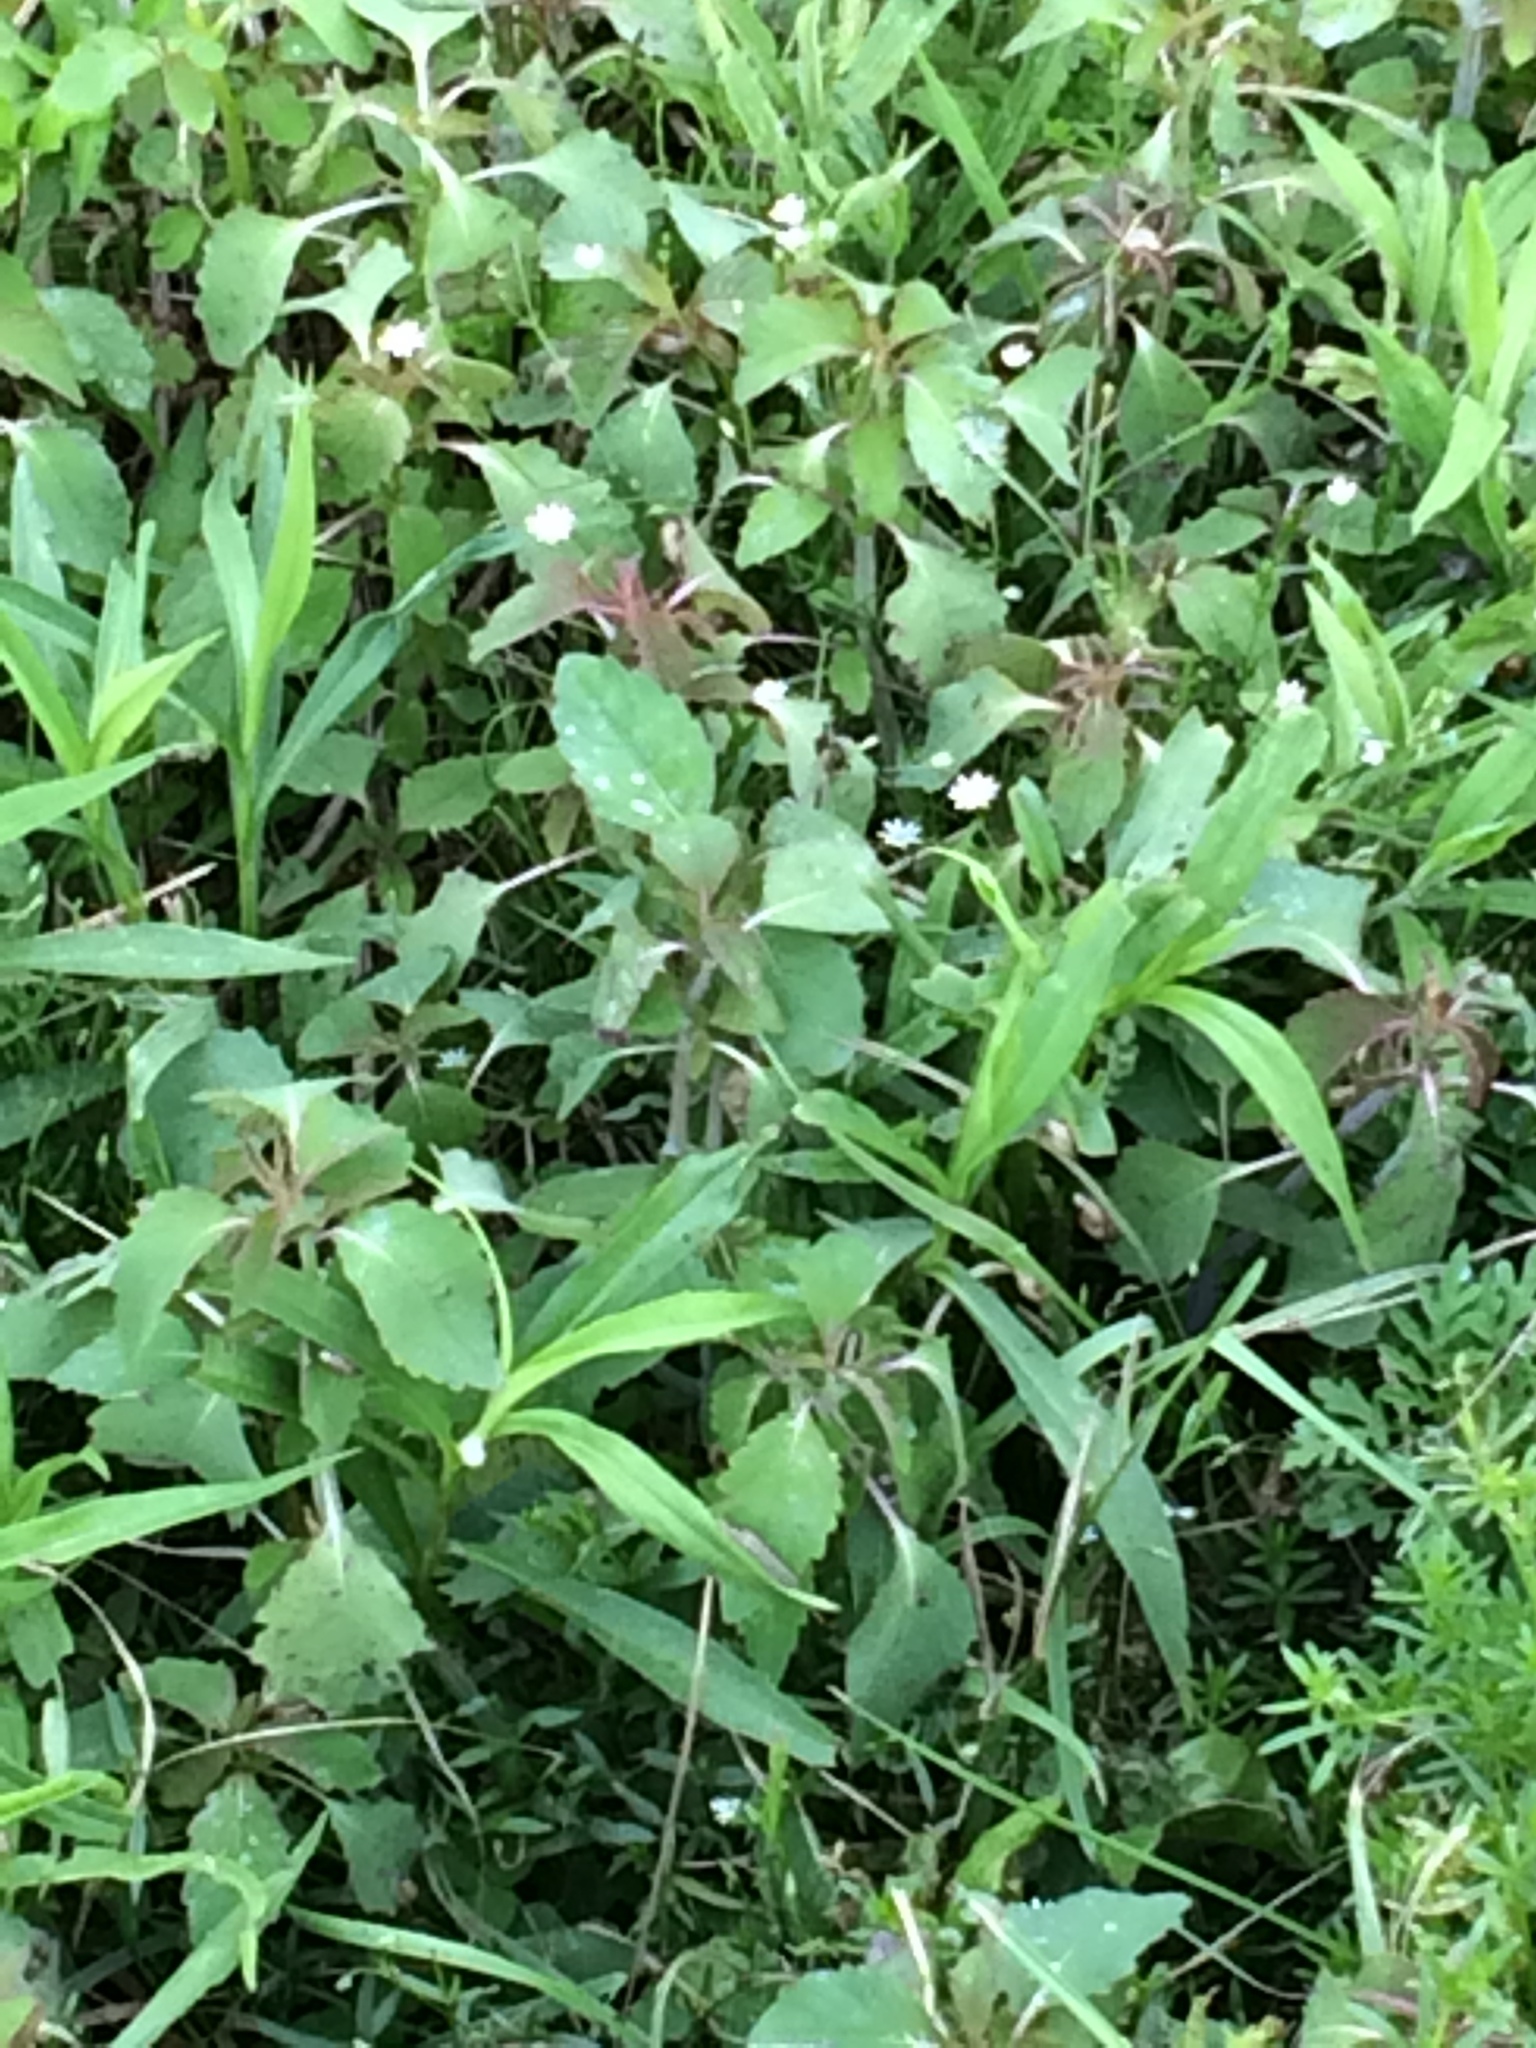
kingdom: Plantae
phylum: Tracheophyta
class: Magnoliopsida
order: Ericales
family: Balsaminaceae
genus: Impatiens
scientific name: Impatiens capensis
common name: Orange balsam
